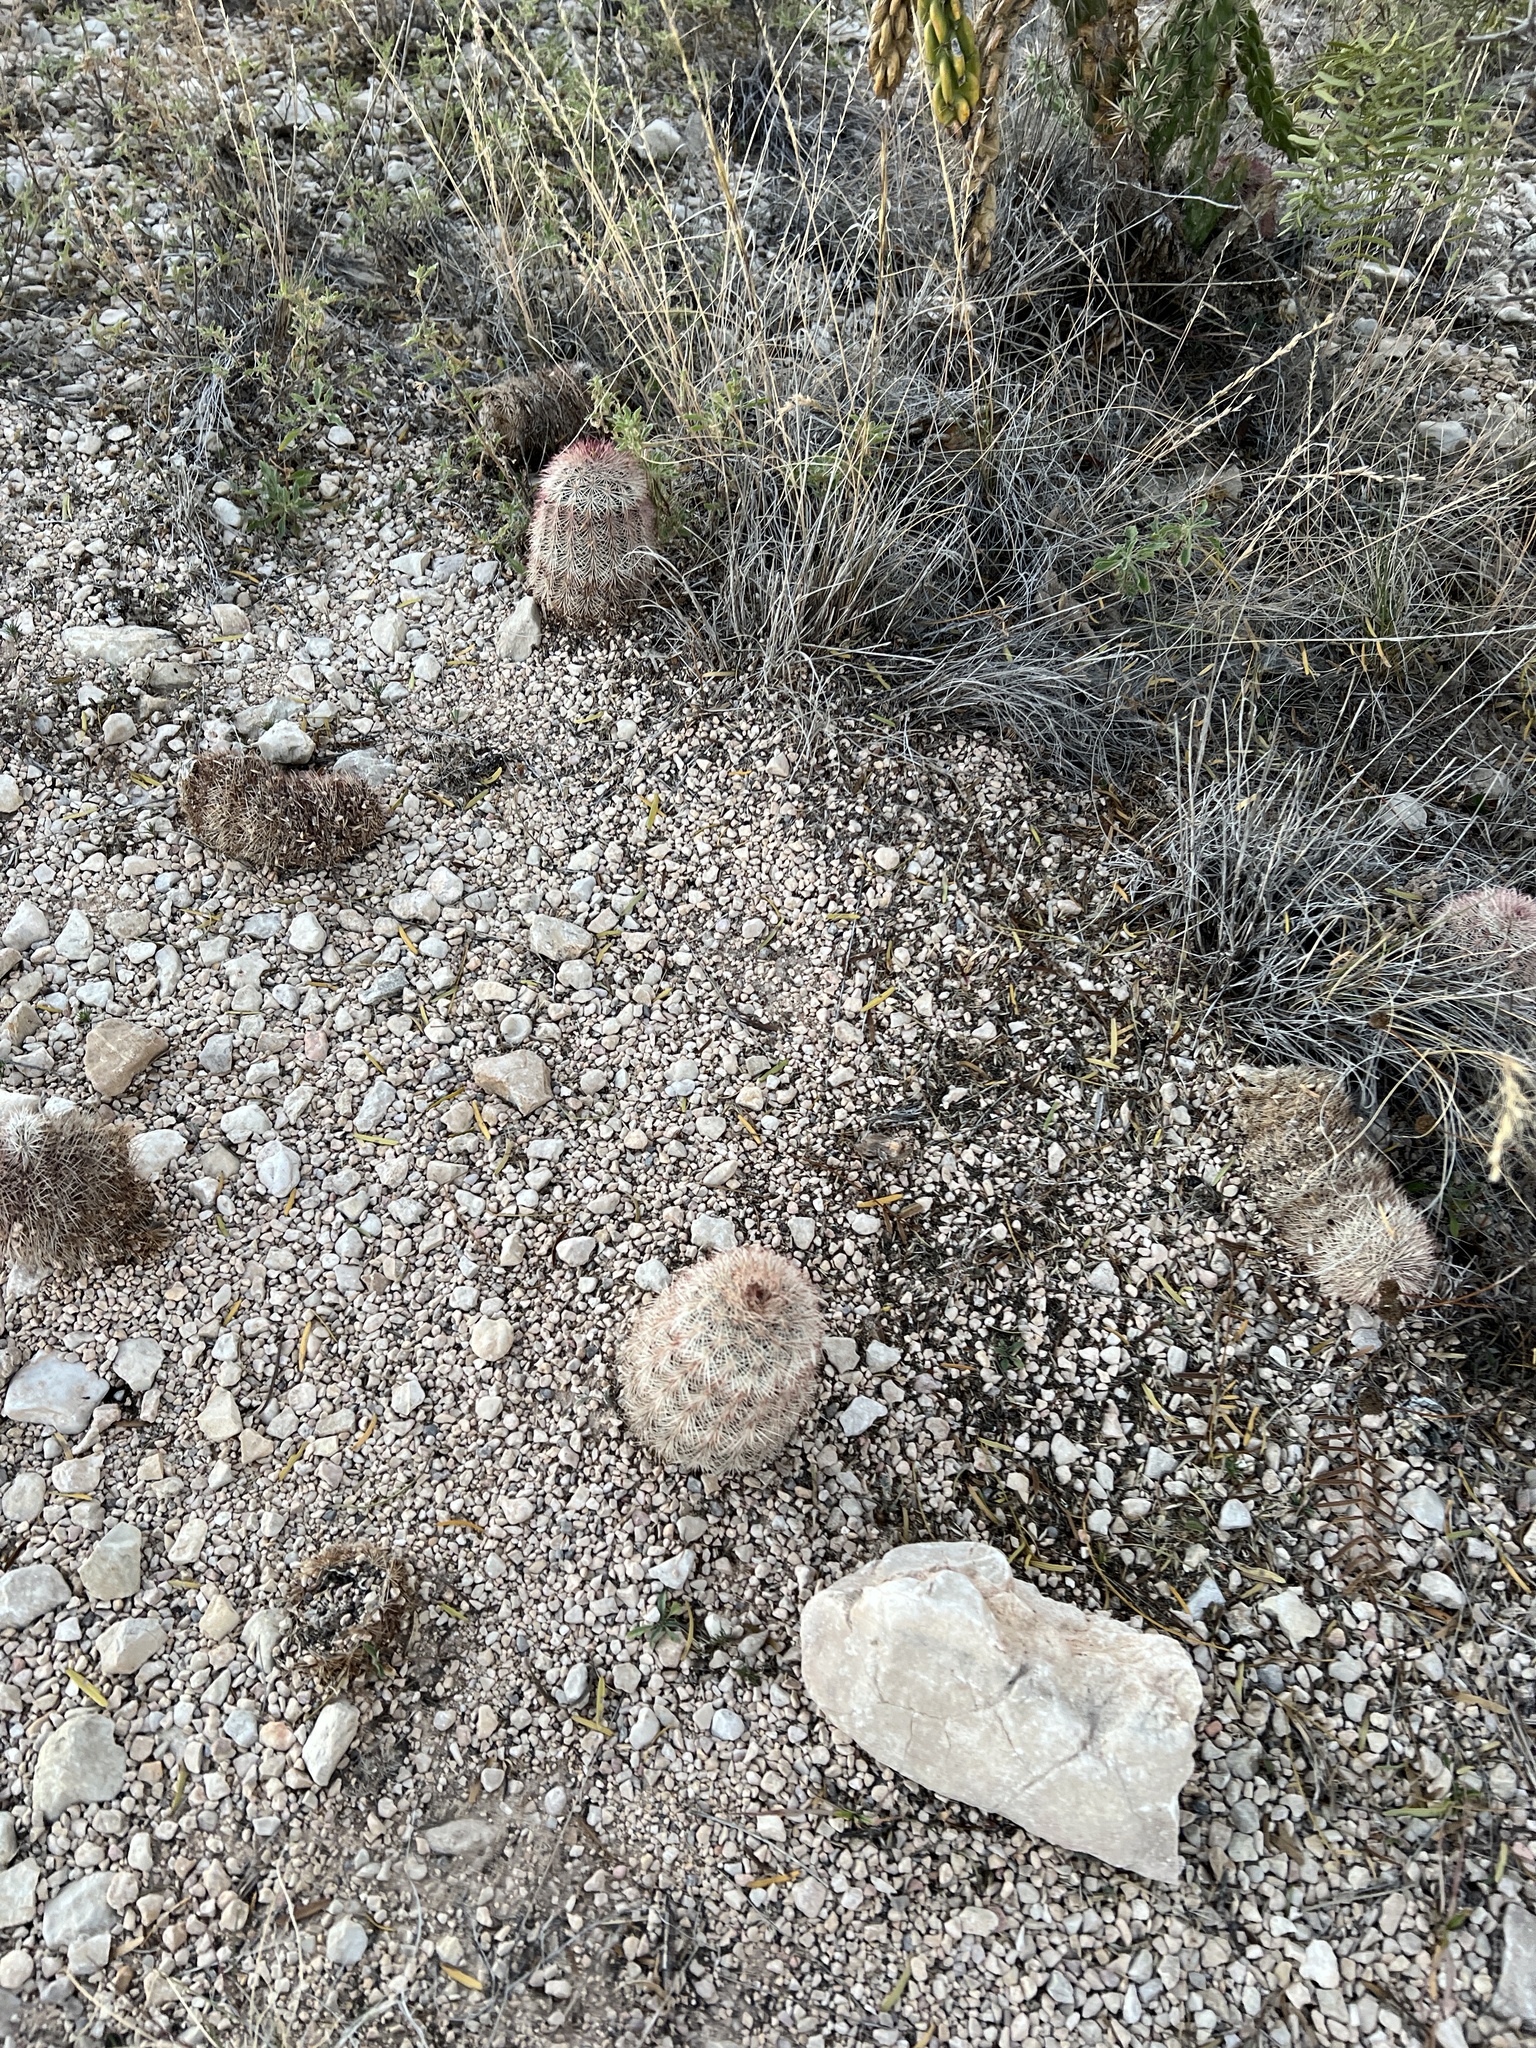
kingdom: Plantae
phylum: Tracheophyta
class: Magnoliopsida
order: Caryophyllales
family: Cactaceae
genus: Echinocereus
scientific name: Echinocereus dasyacanthus
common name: Spiny hedgehog cactus
